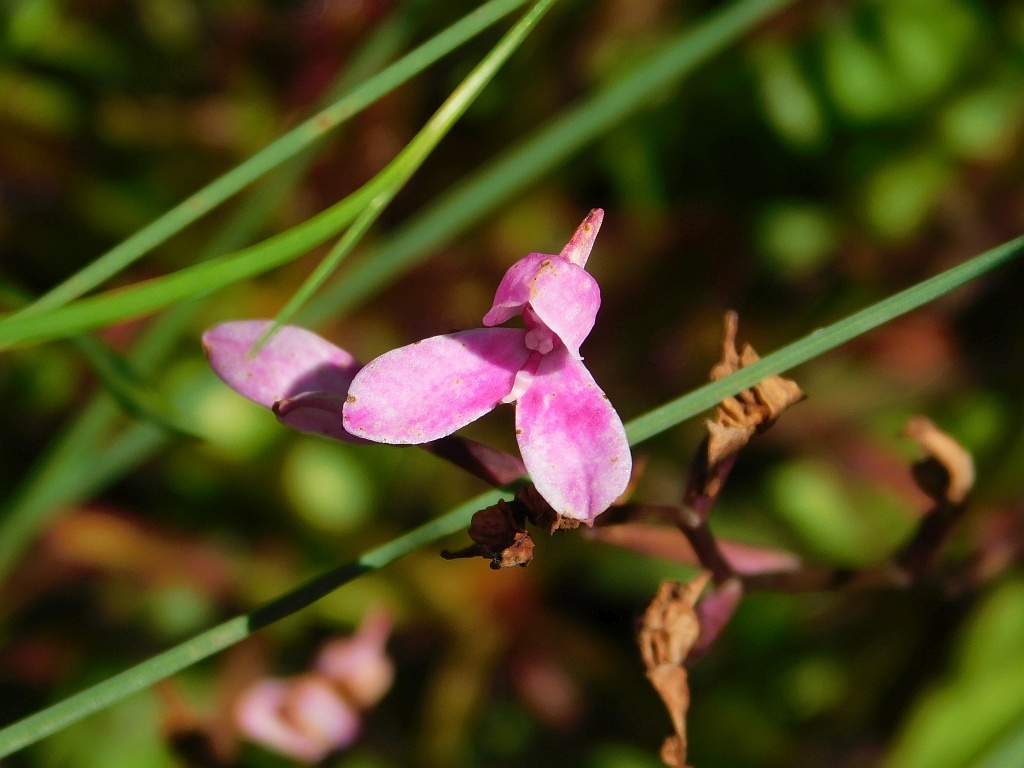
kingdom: Plantae
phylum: Tracheophyta
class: Liliopsida
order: Asparagales
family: Orchidaceae
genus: Disa
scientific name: Disa tripetaloides
